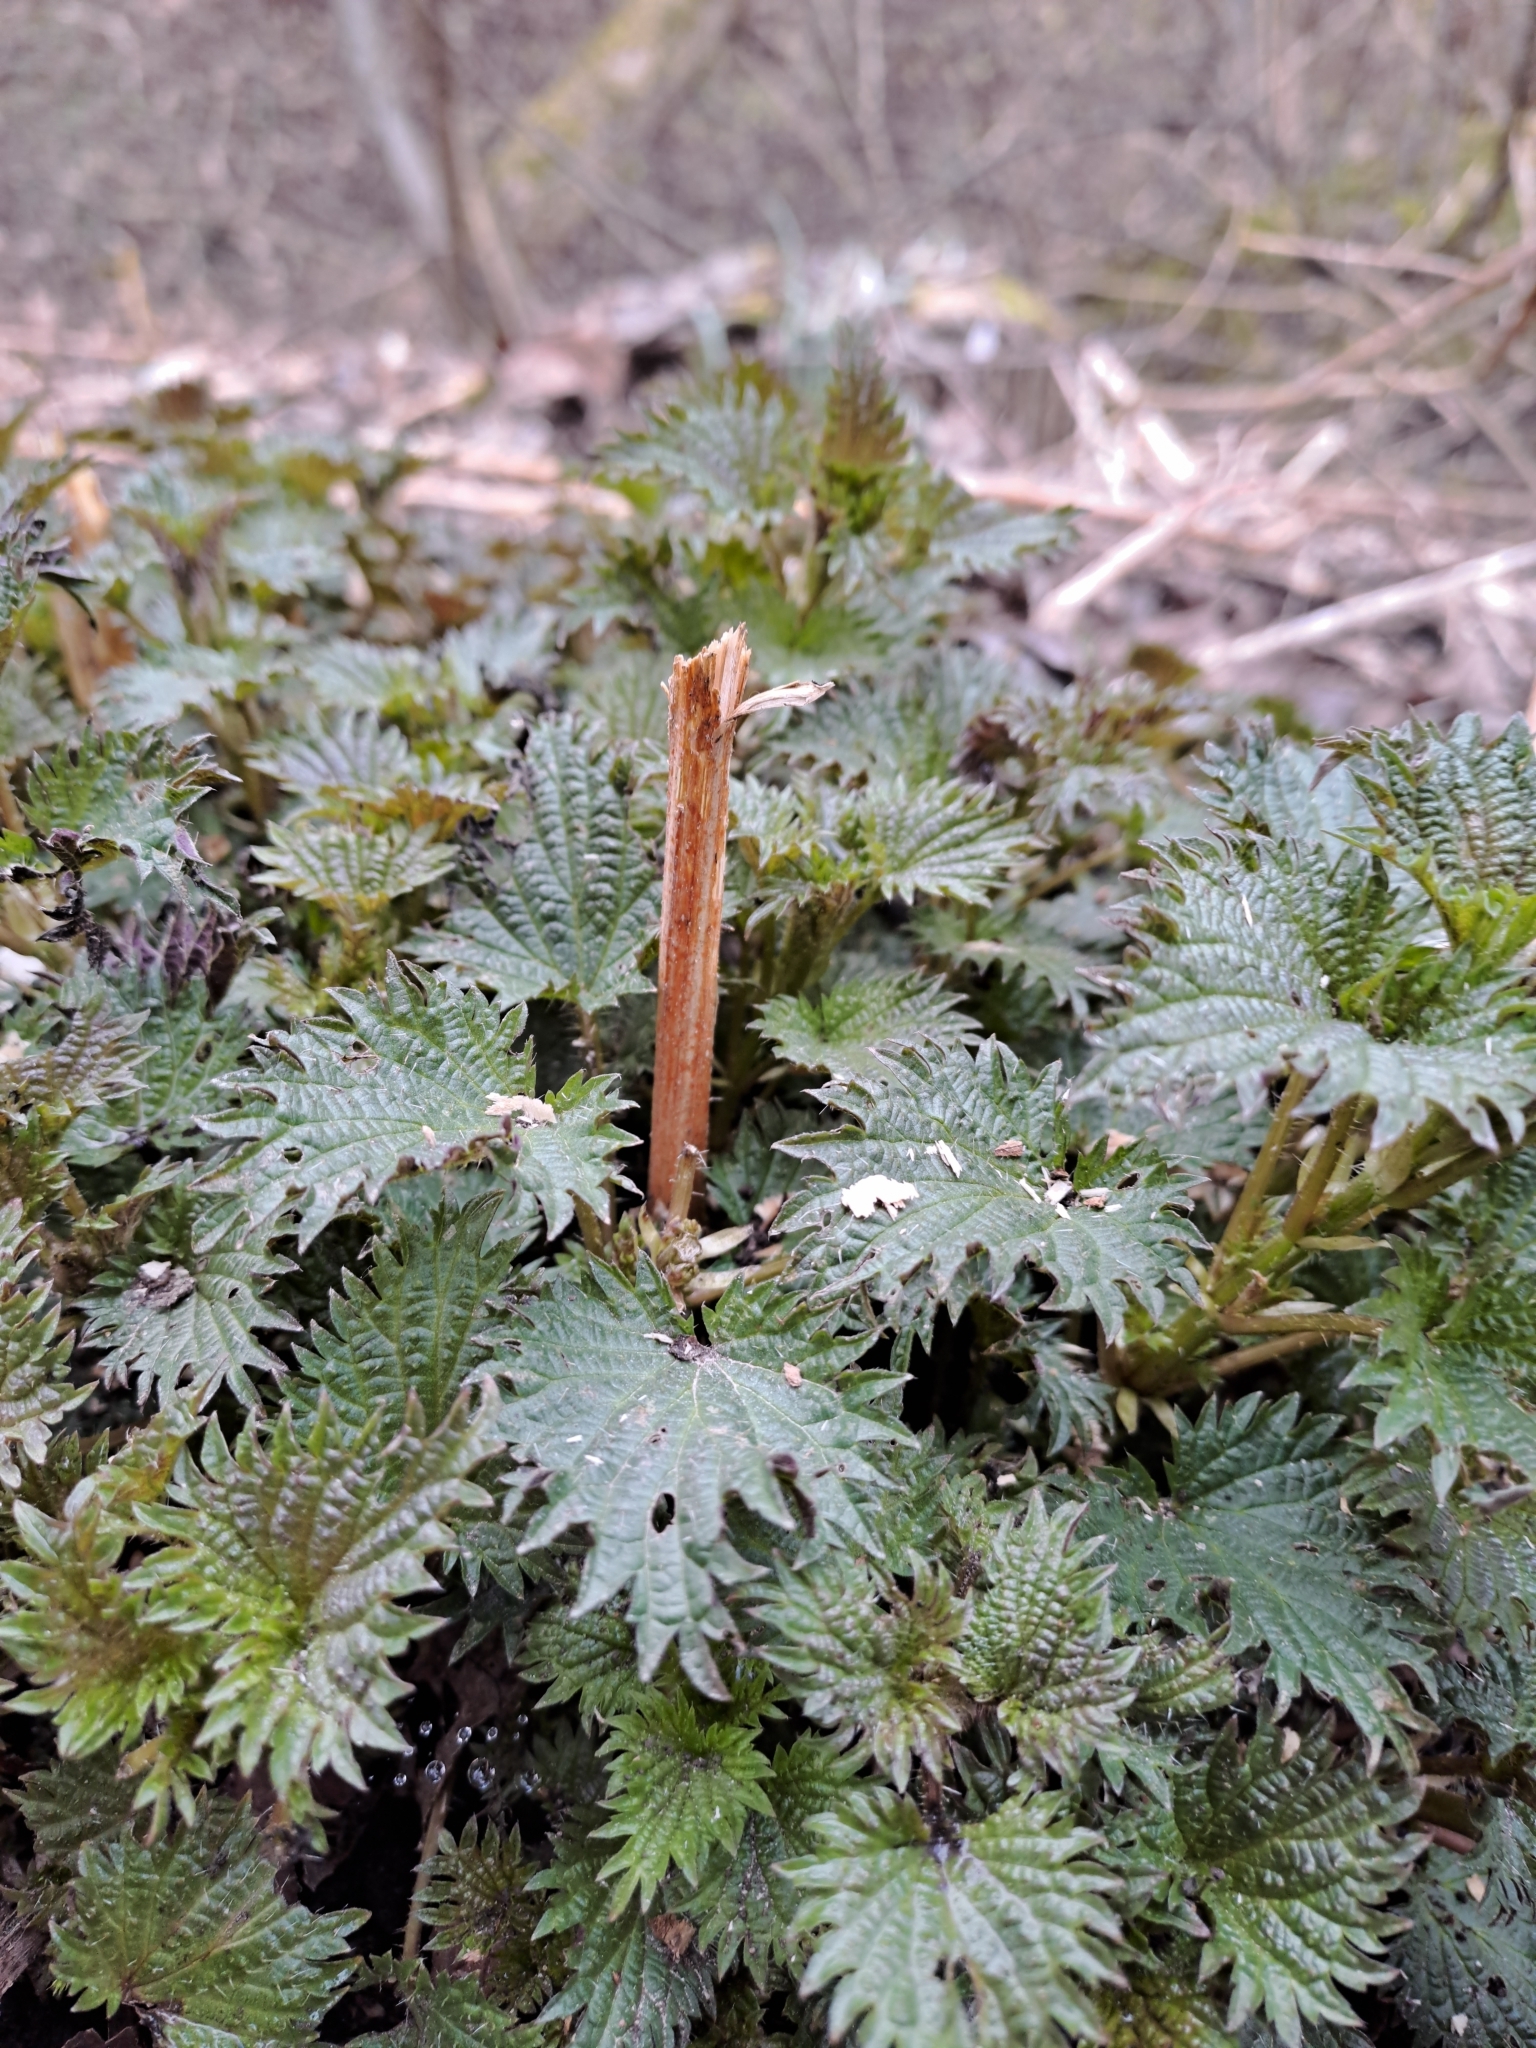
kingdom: Plantae
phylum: Tracheophyta
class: Magnoliopsida
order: Rosales
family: Urticaceae
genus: Urtica
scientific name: Urtica dioica
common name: Common nettle
